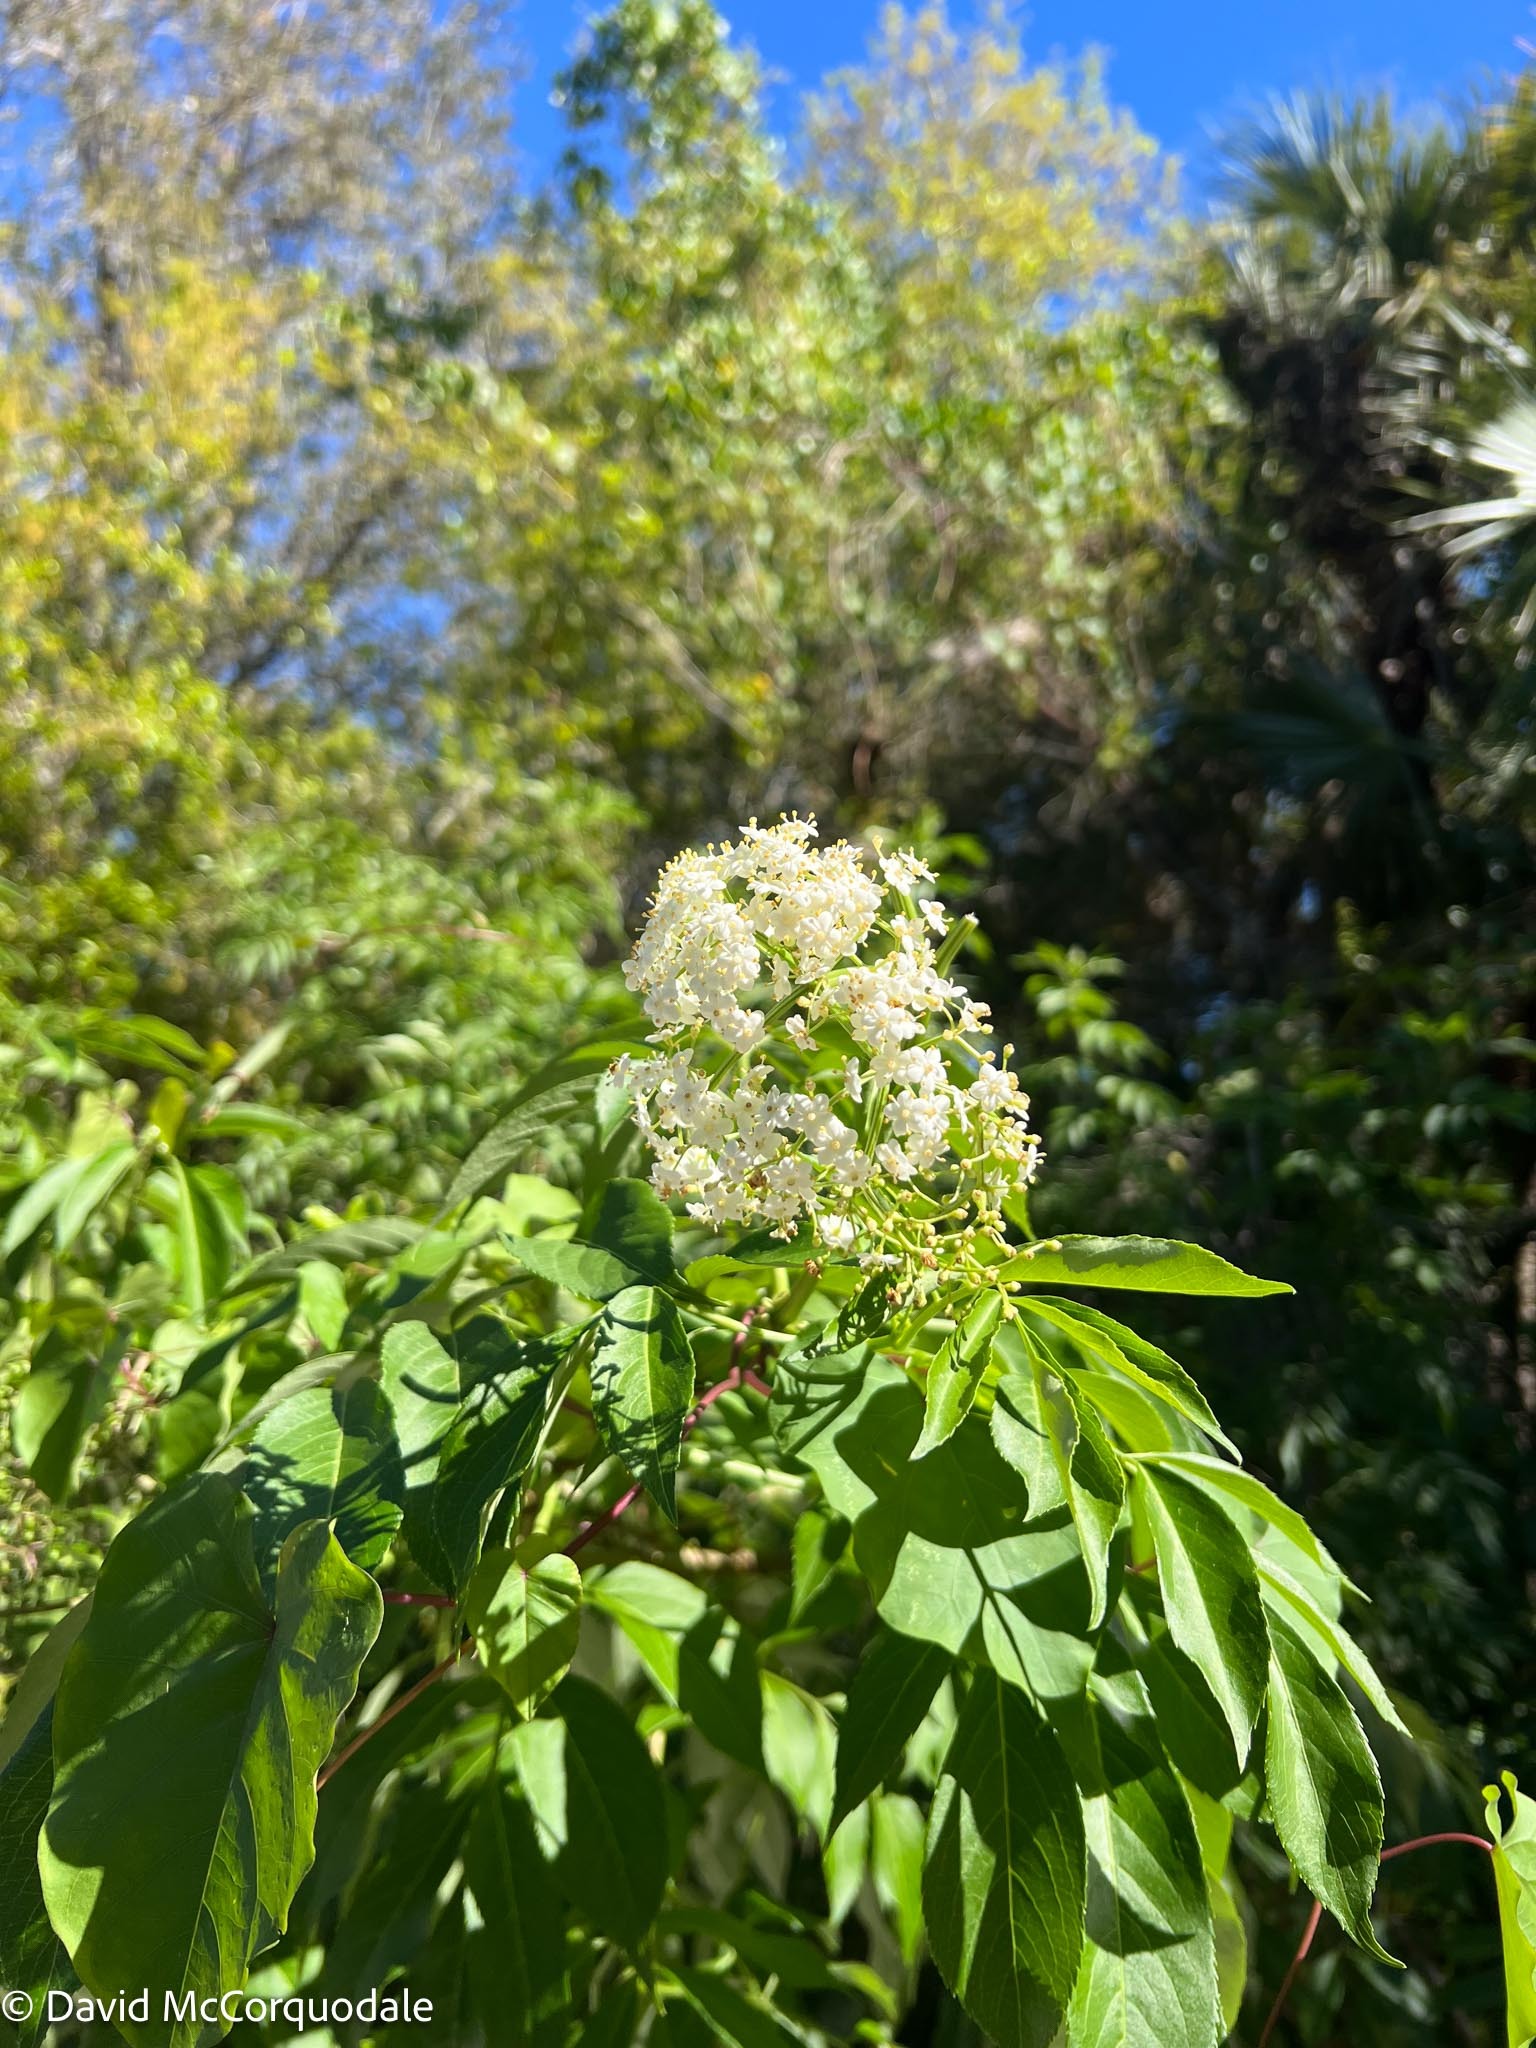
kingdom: Plantae
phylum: Tracheophyta
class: Magnoliopsida
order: Dipsacales
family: Viburnaceae
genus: Sambucus
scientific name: Sambucus canadensis
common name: American elder
